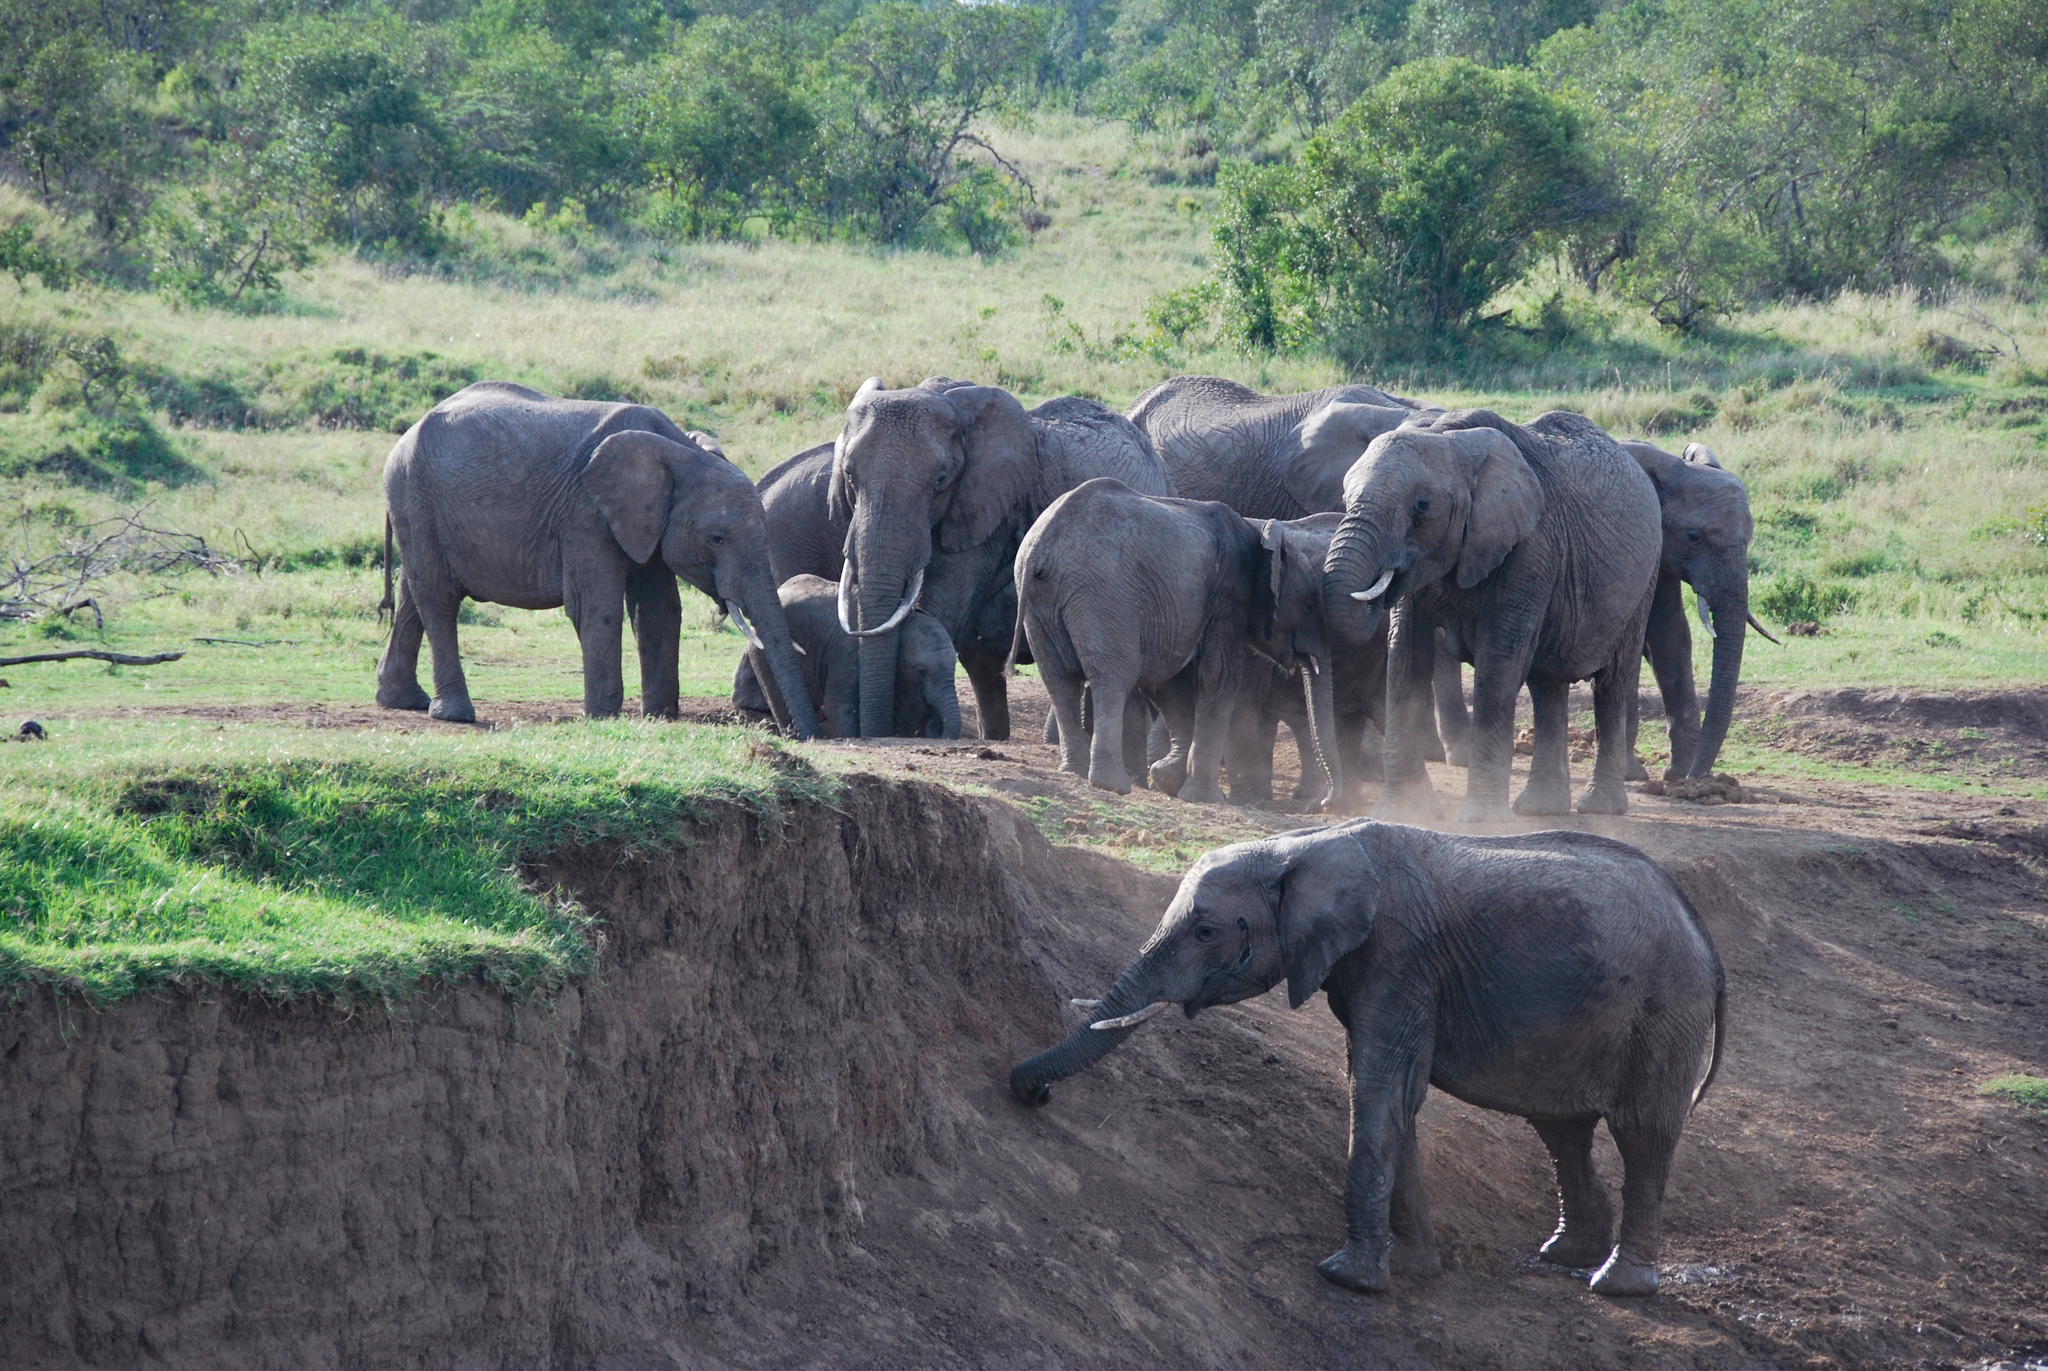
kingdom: Animalia
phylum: Chordata
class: Mammalia
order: Proboscidea
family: Elephantidae
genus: Loxodonta
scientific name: Loxodonta africana
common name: African elephant
